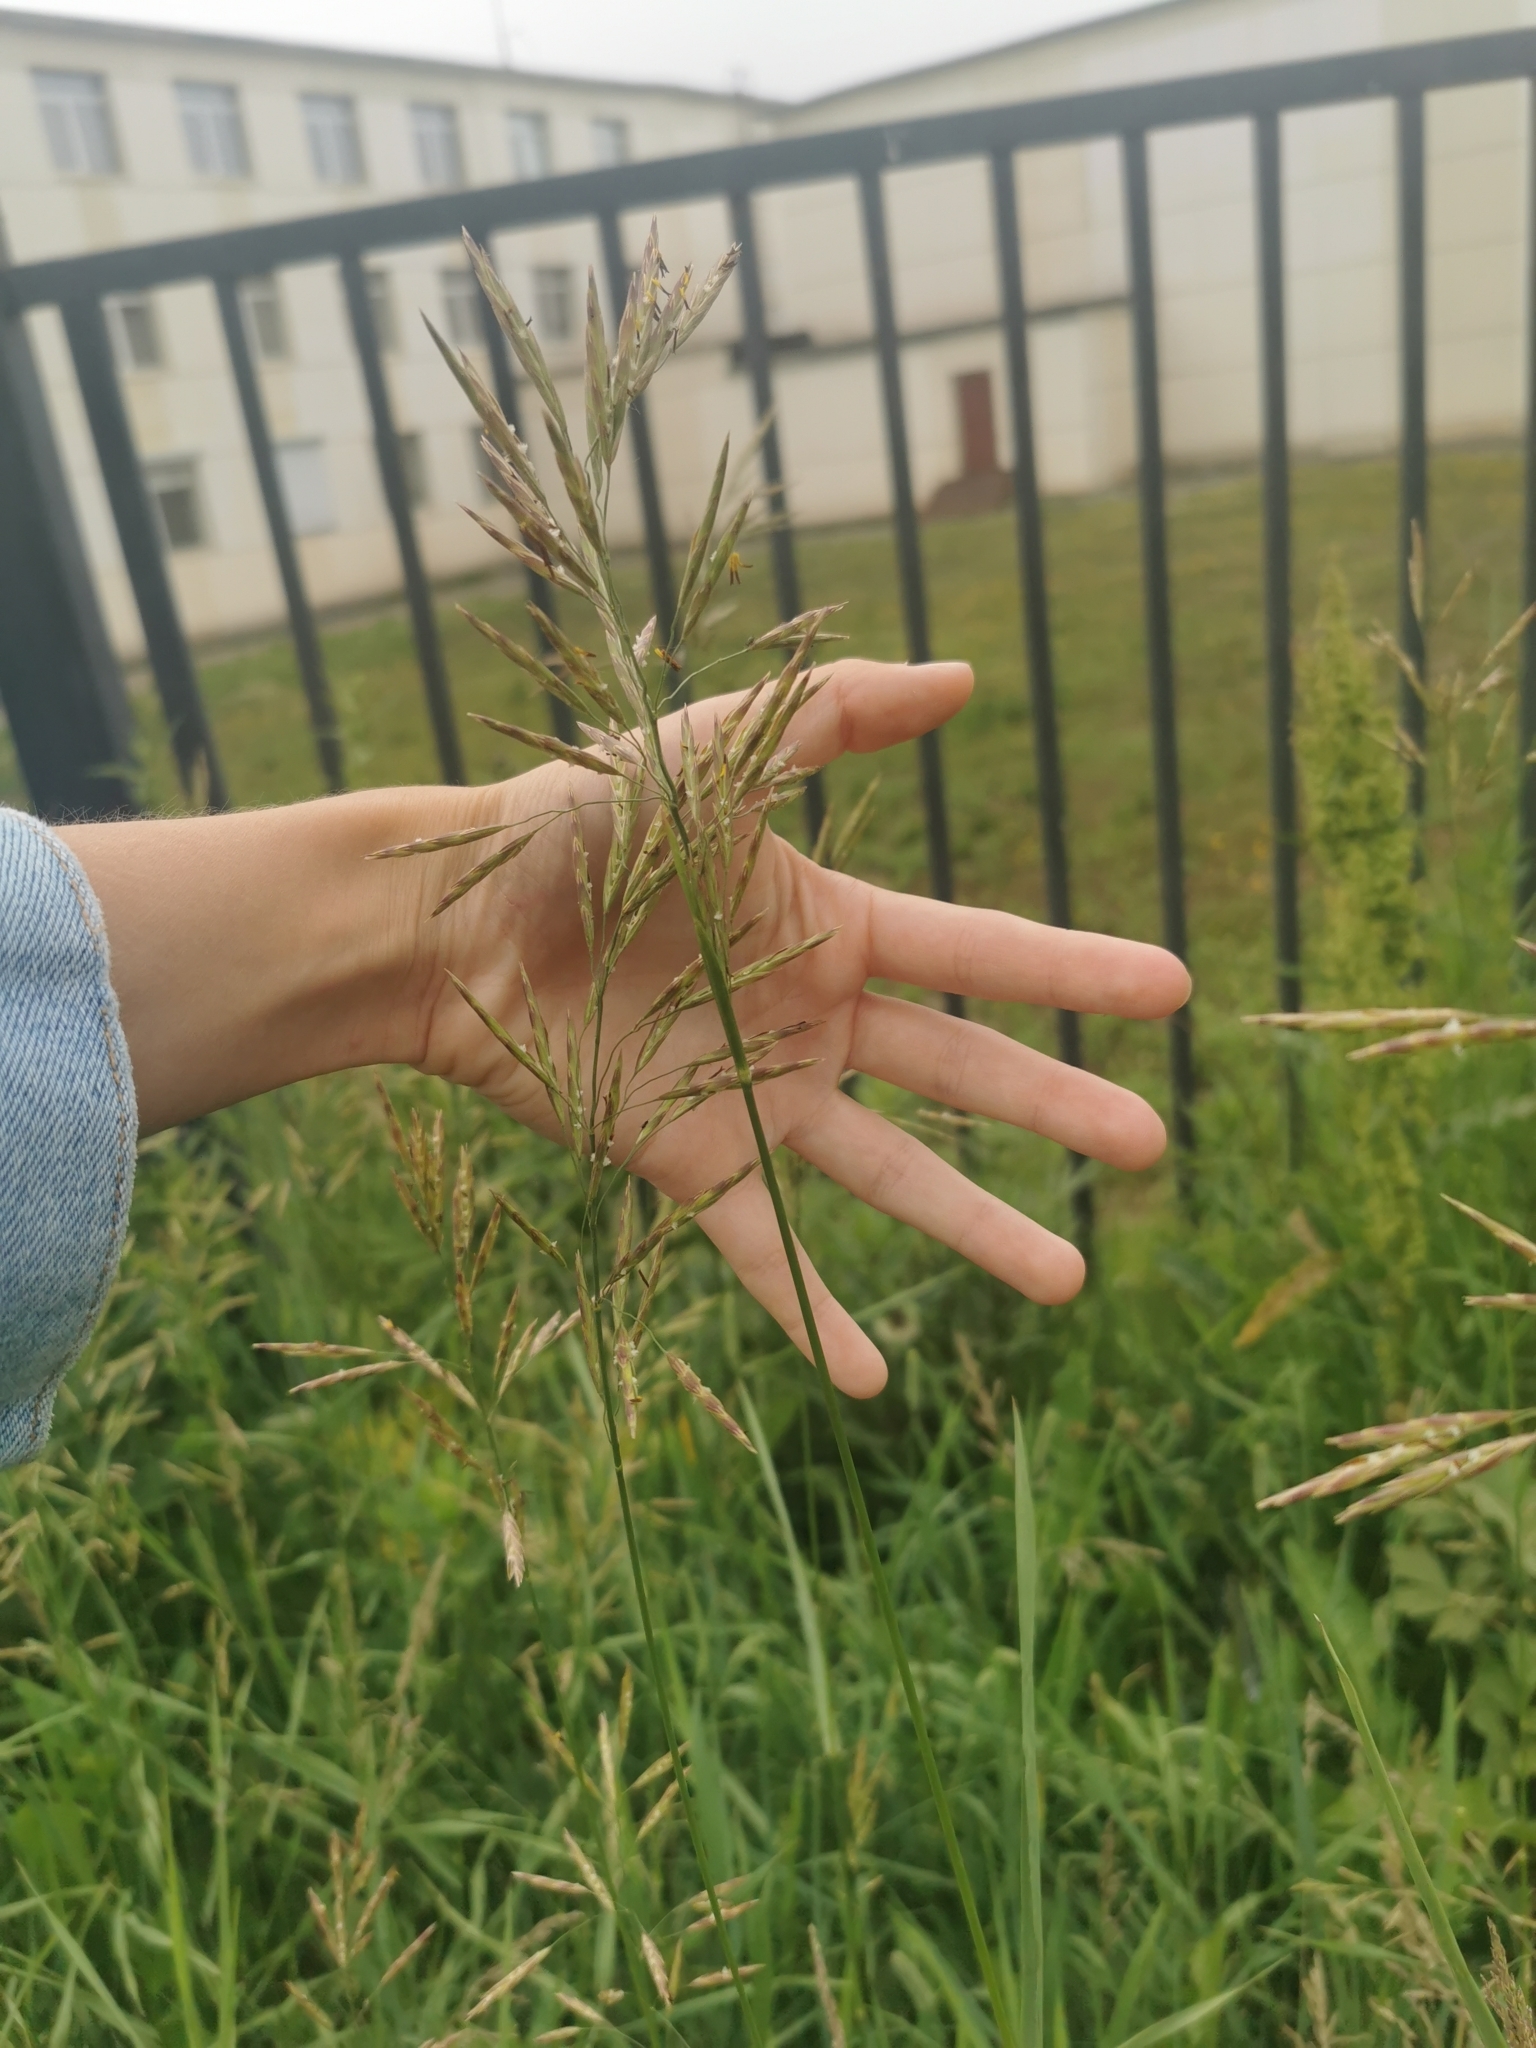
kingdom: Plantae
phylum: Tracheophyta
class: Liliopsida
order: Poales
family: Poaceae
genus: Bromus
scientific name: Bromus inermis
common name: Smooth brome
